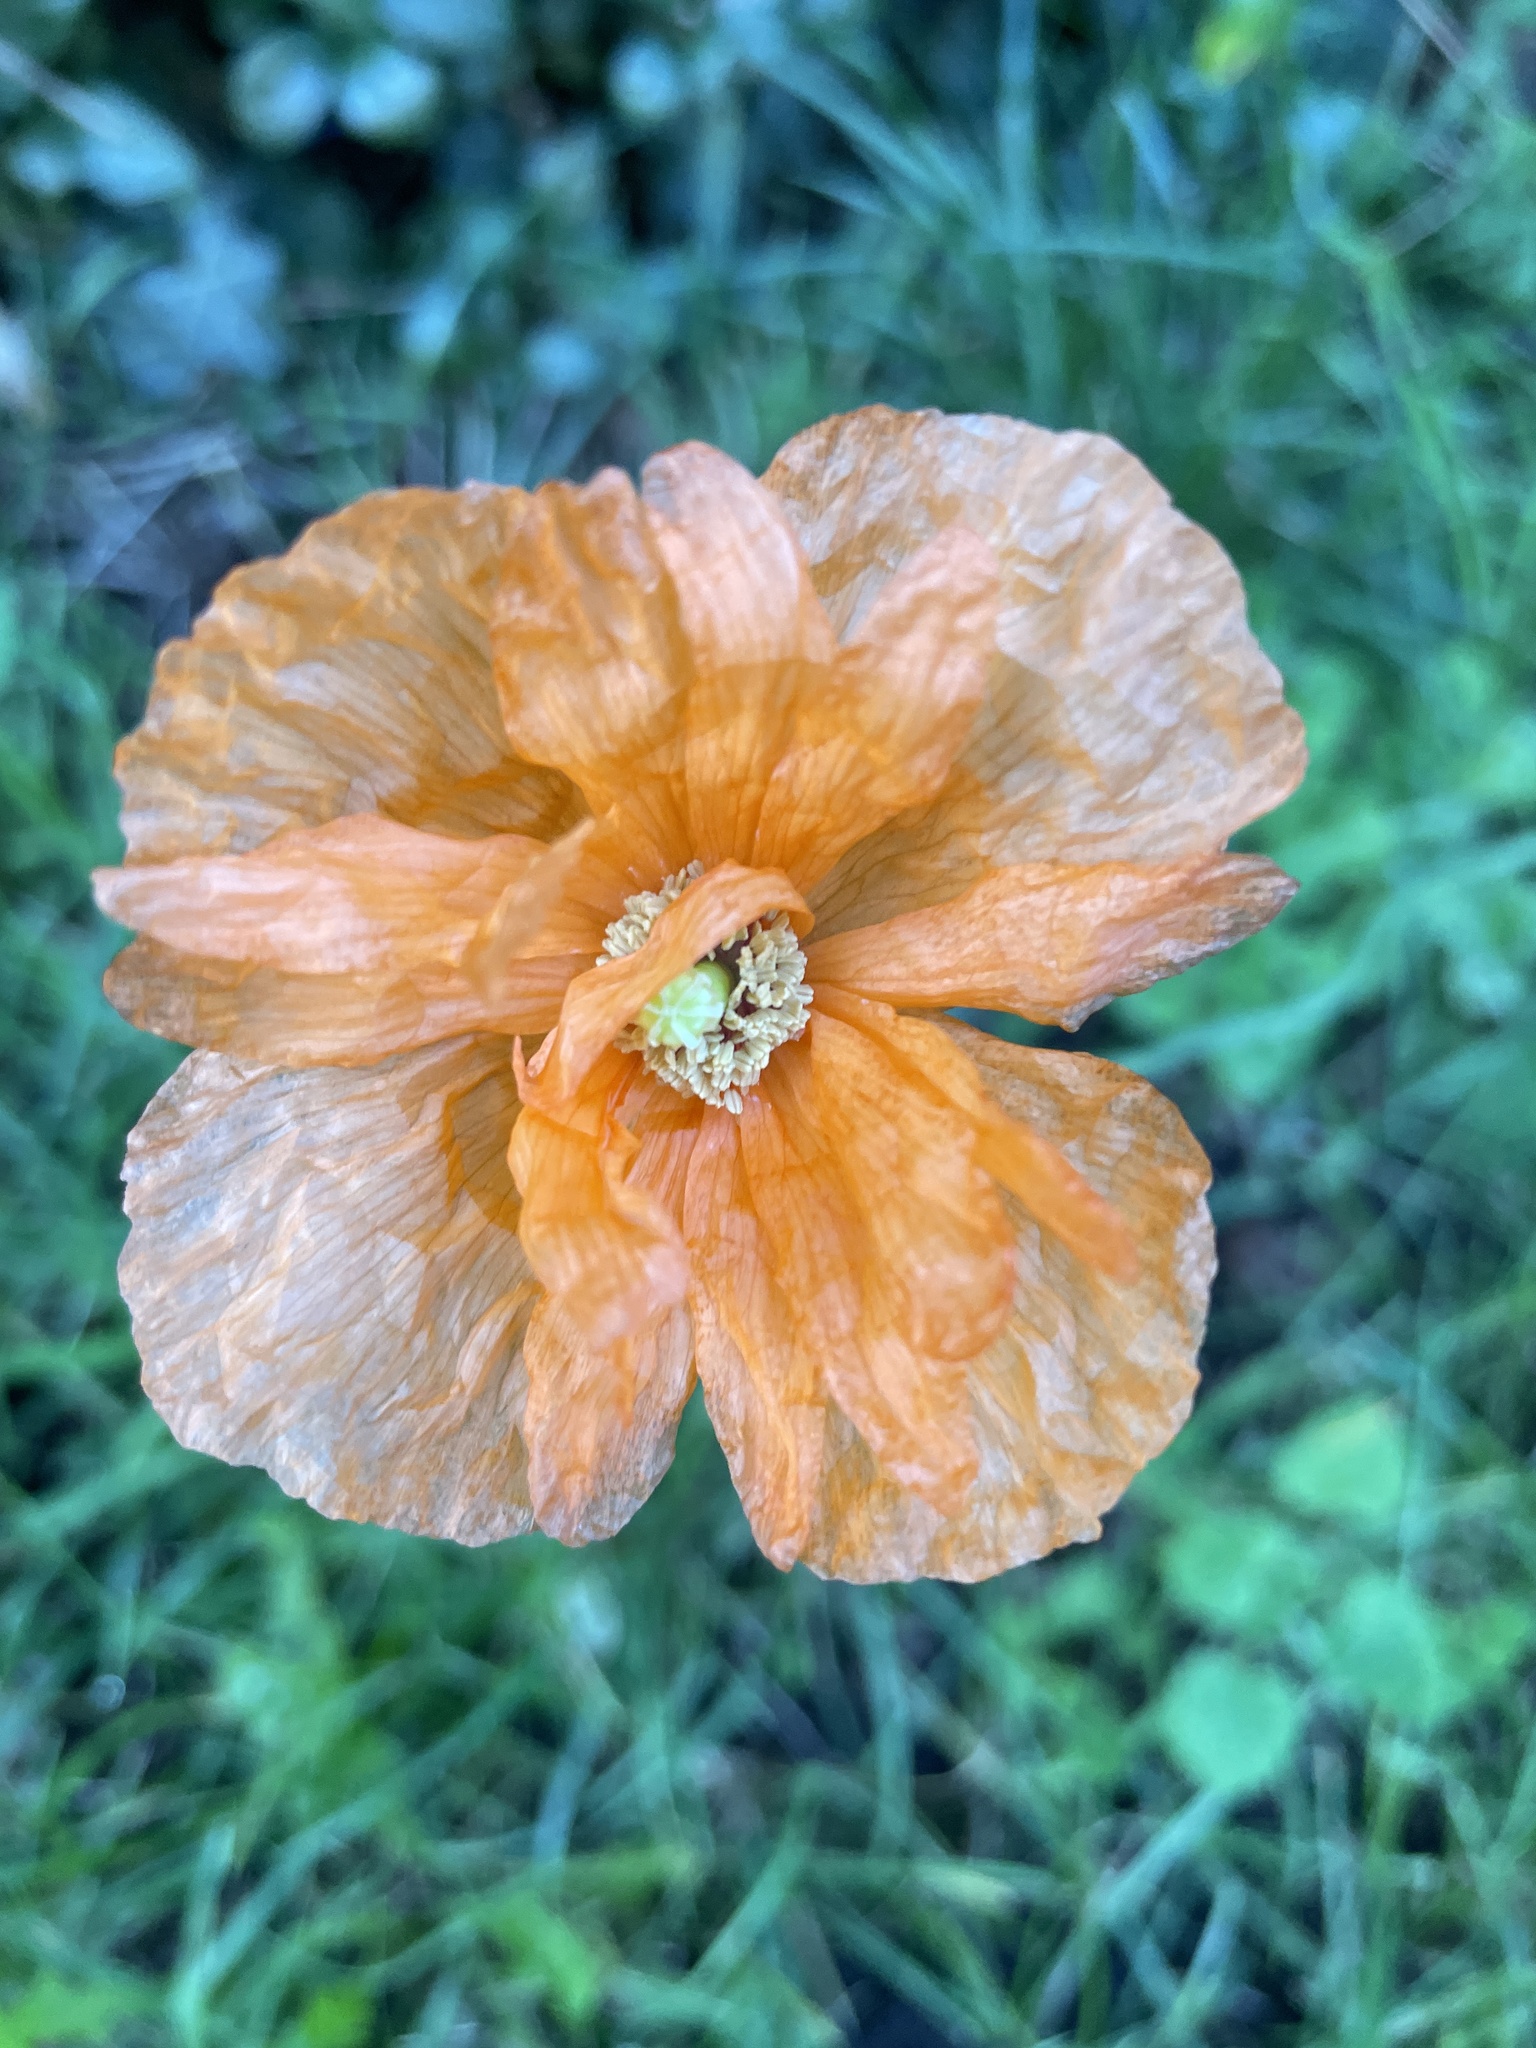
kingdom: Plantae
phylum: Tracheophyta
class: Magnoliopsida
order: Ranunculales
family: Papaveraceae
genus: Papaver
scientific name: Papaver atlanticum
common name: Atlas poppy
